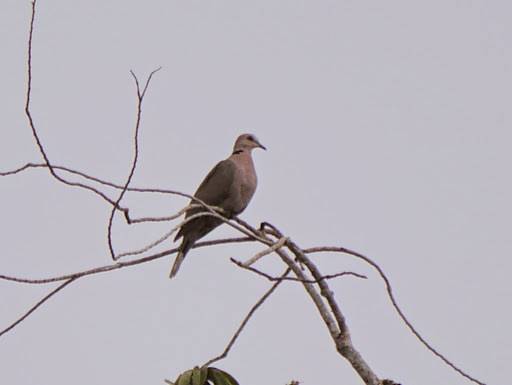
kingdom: Animalia
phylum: Chordata
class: Aves
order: Columbiformes
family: Columbidae
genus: Streptopelia
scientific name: Streptopelia semitorquata
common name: Red-eyed dove
